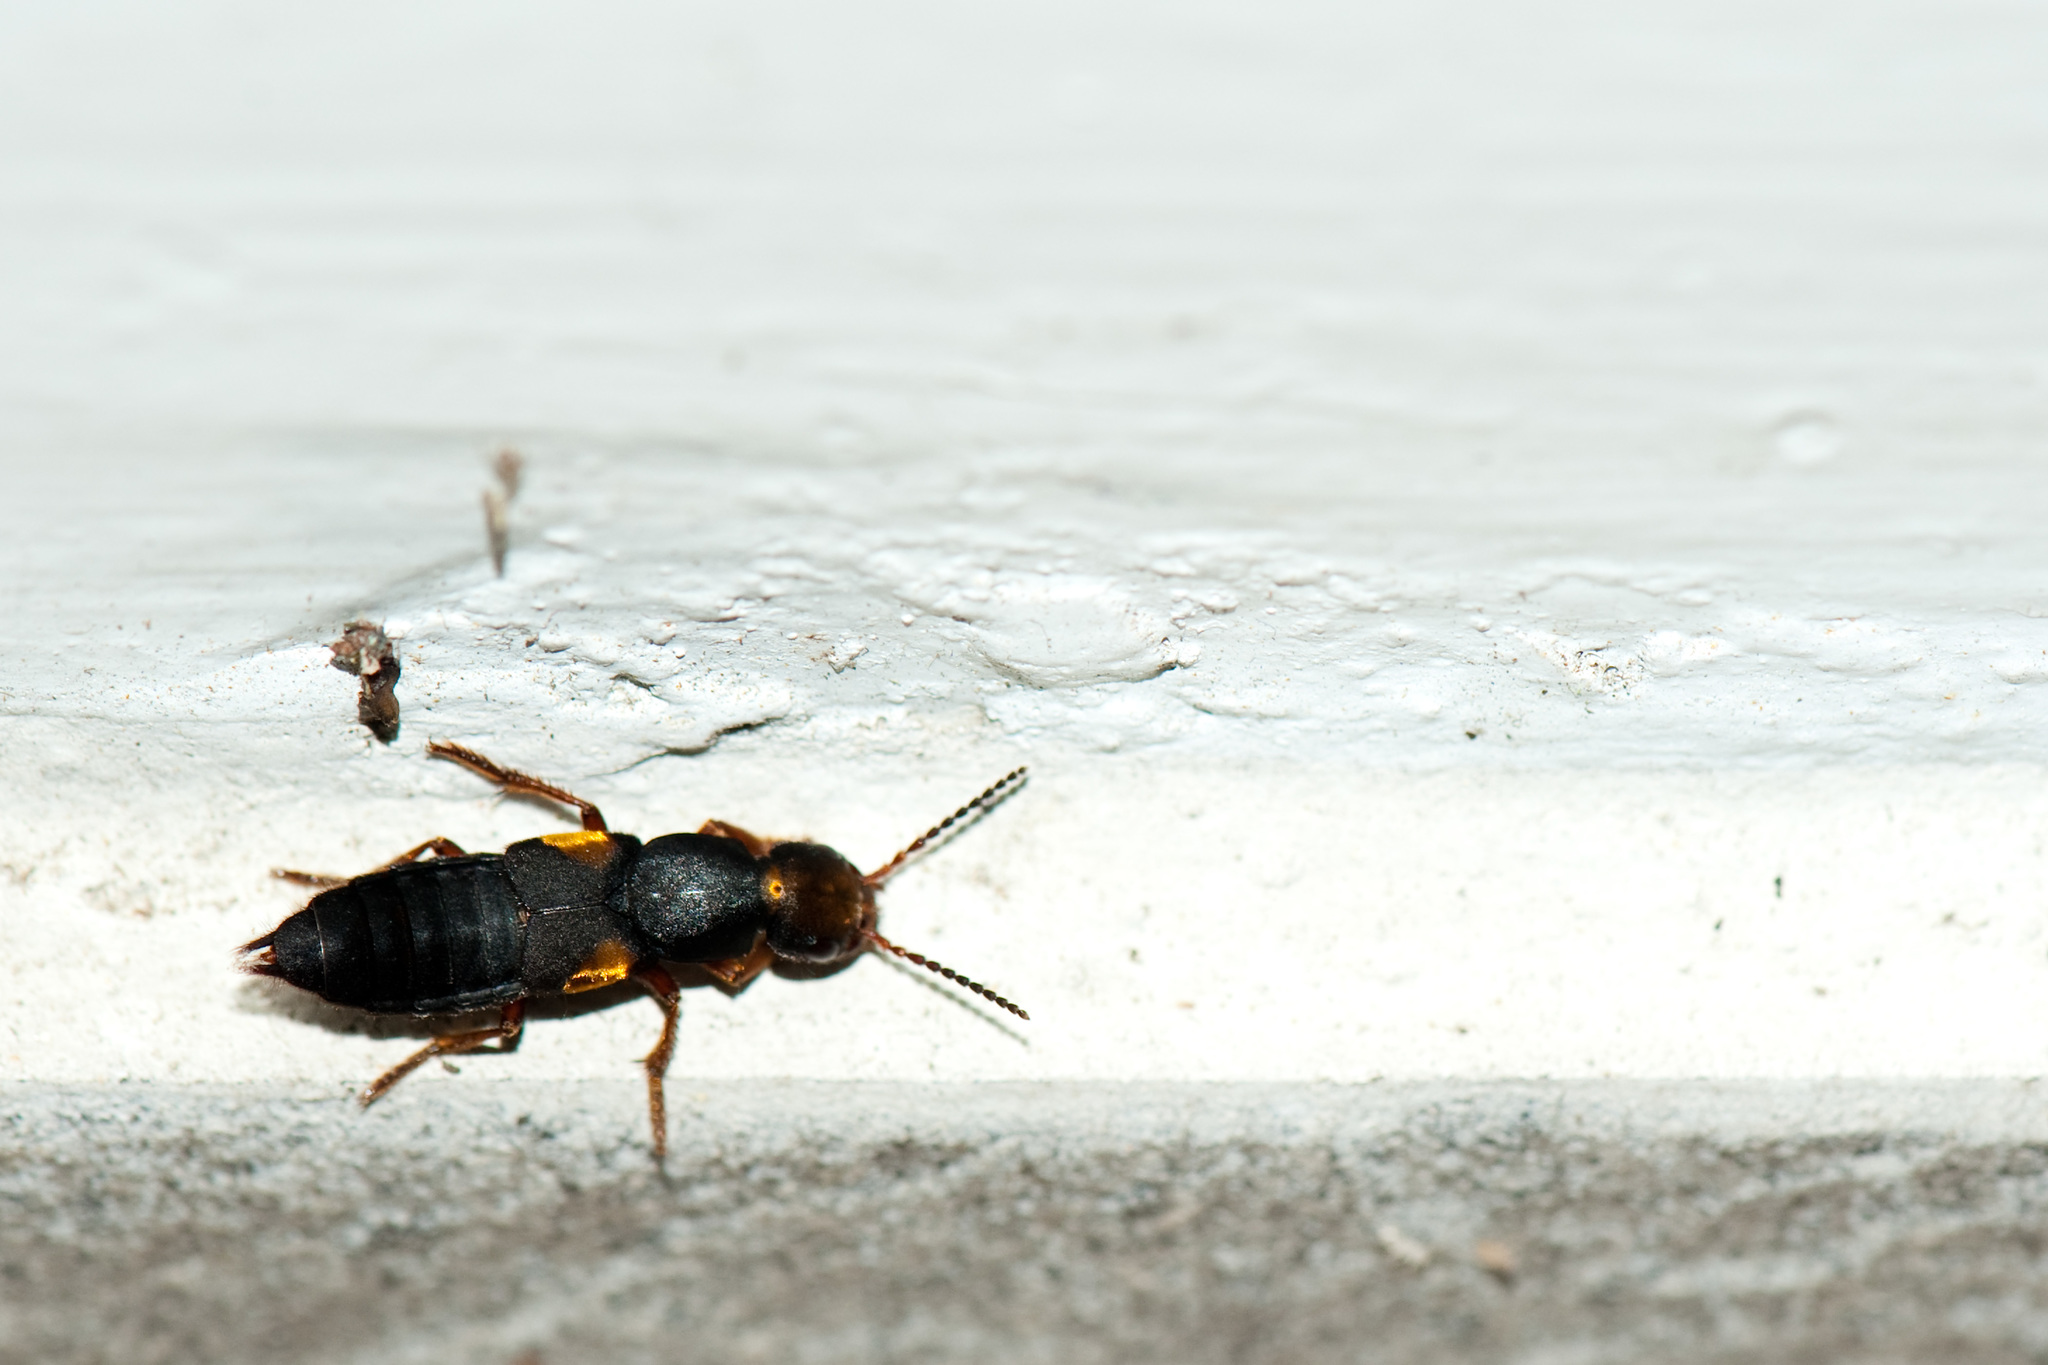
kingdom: Animalia
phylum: Arthropoda
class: Insecta
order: Coleoptera
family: Staphylinidae
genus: Agelosus
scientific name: Agelosus auricomus
